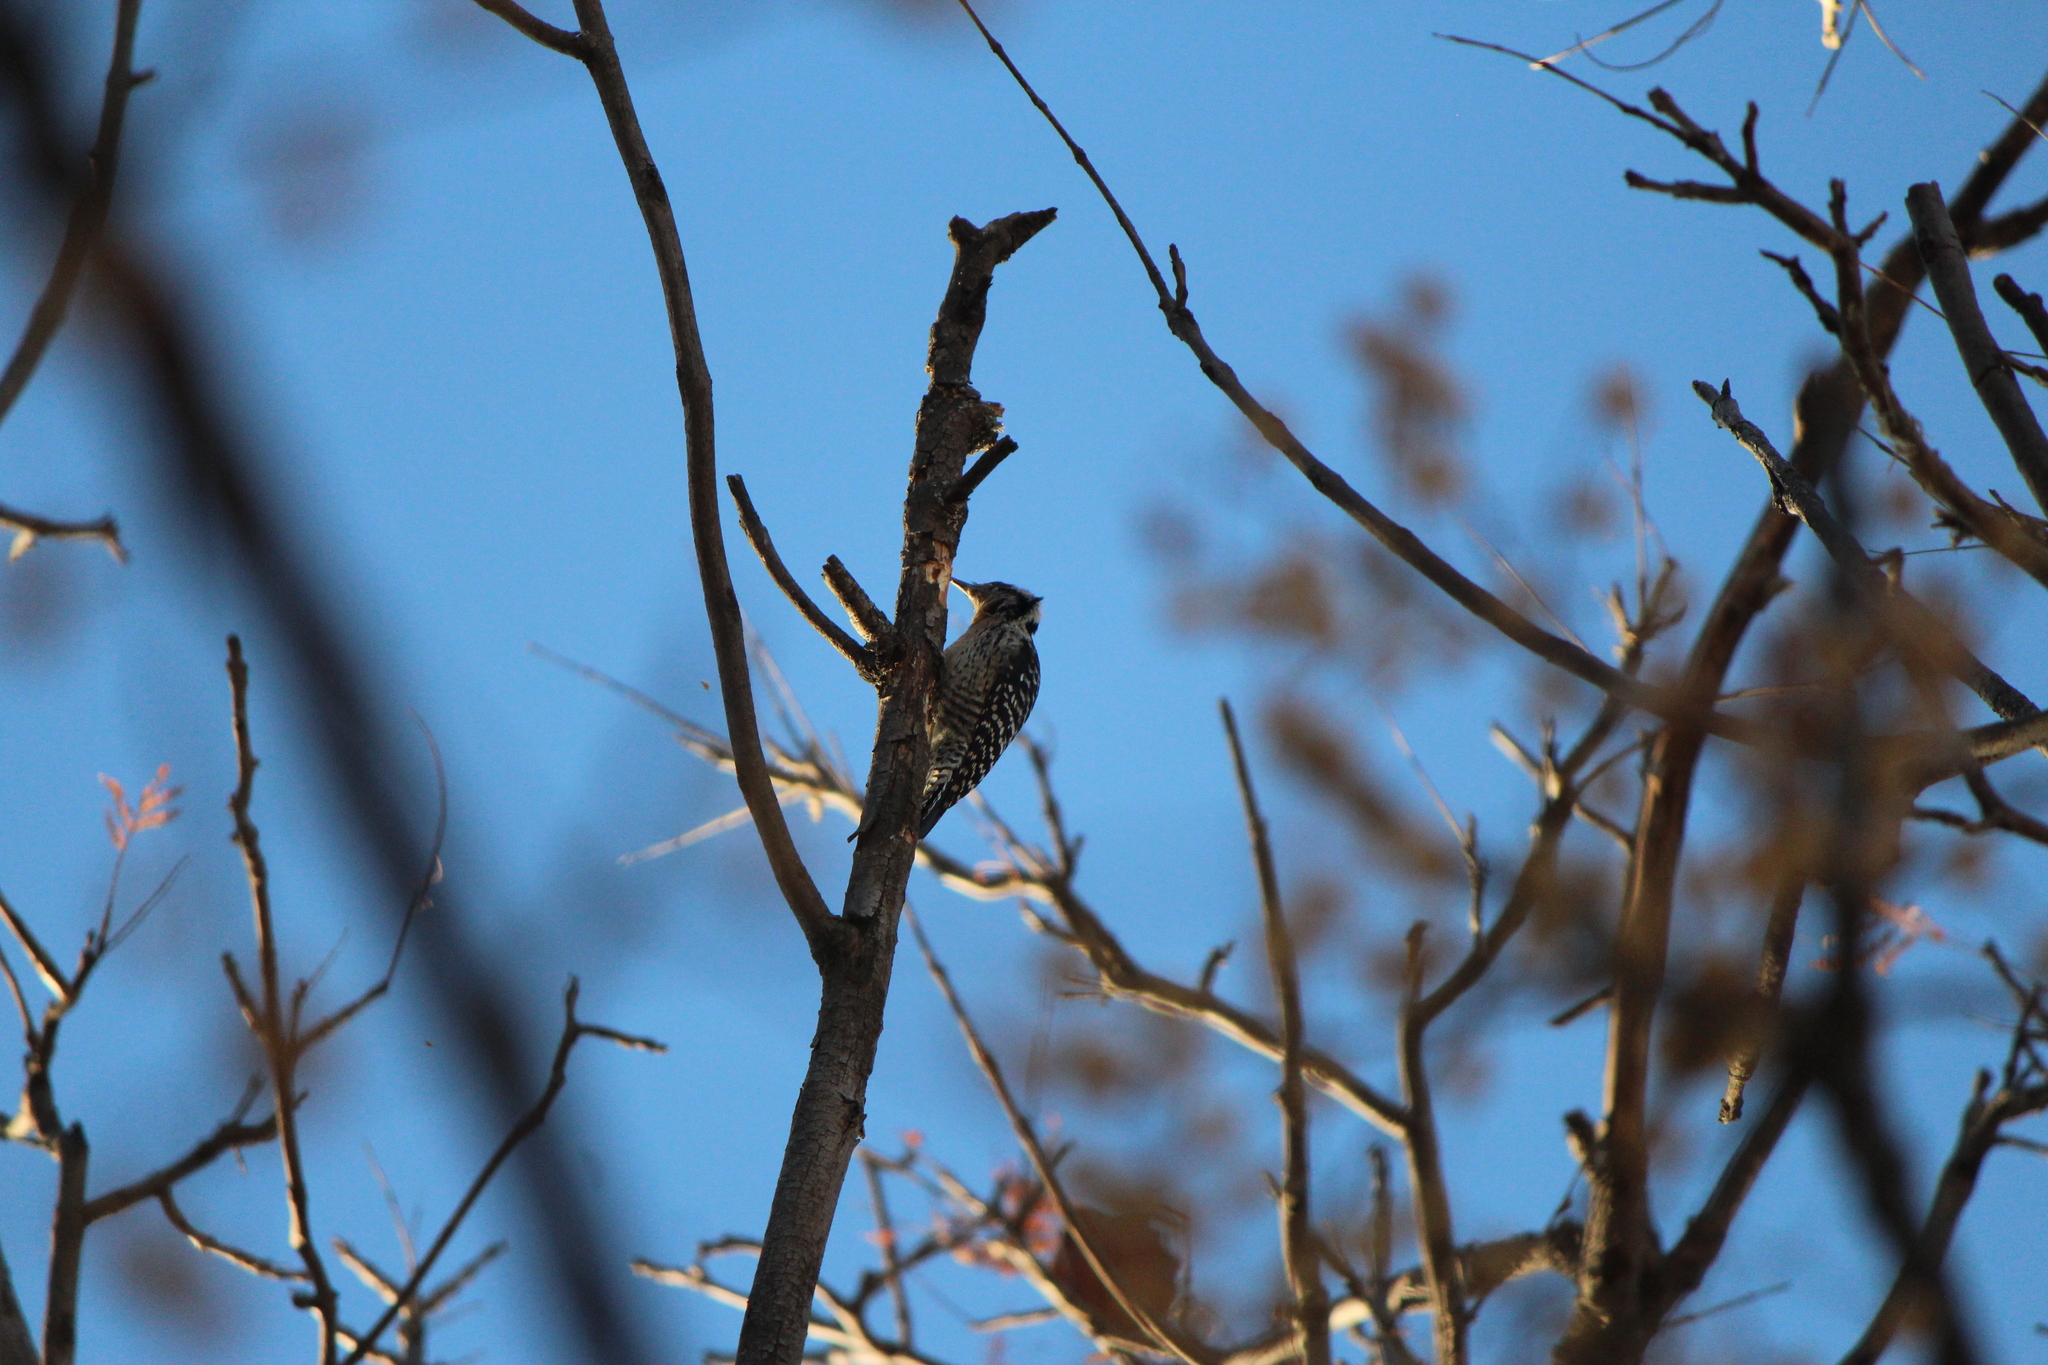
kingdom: Animalia
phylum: Chordata
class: Aves
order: Piciformes
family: Picidae
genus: Dryobates
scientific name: Dryobates scalaris
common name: Ladder-backed woodpecker
